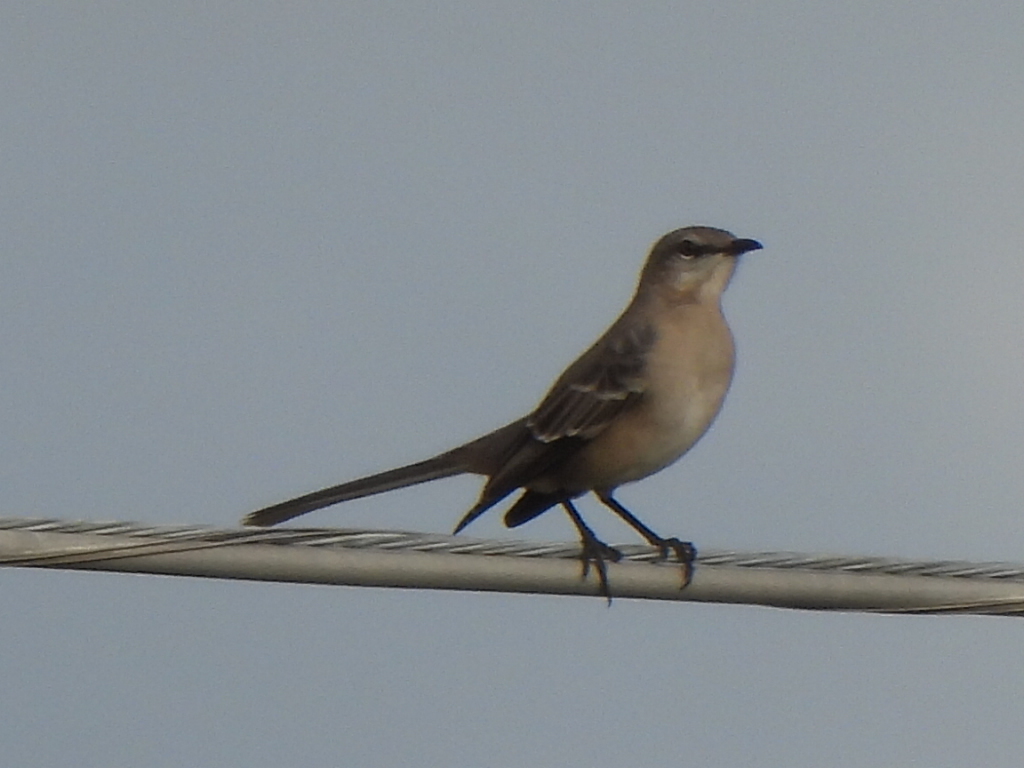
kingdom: Animalia
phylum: Chordata
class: Aves
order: Passeriformes
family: Mimidae
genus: Mimus
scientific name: Mimus polyglottos
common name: Northern mockingbird
